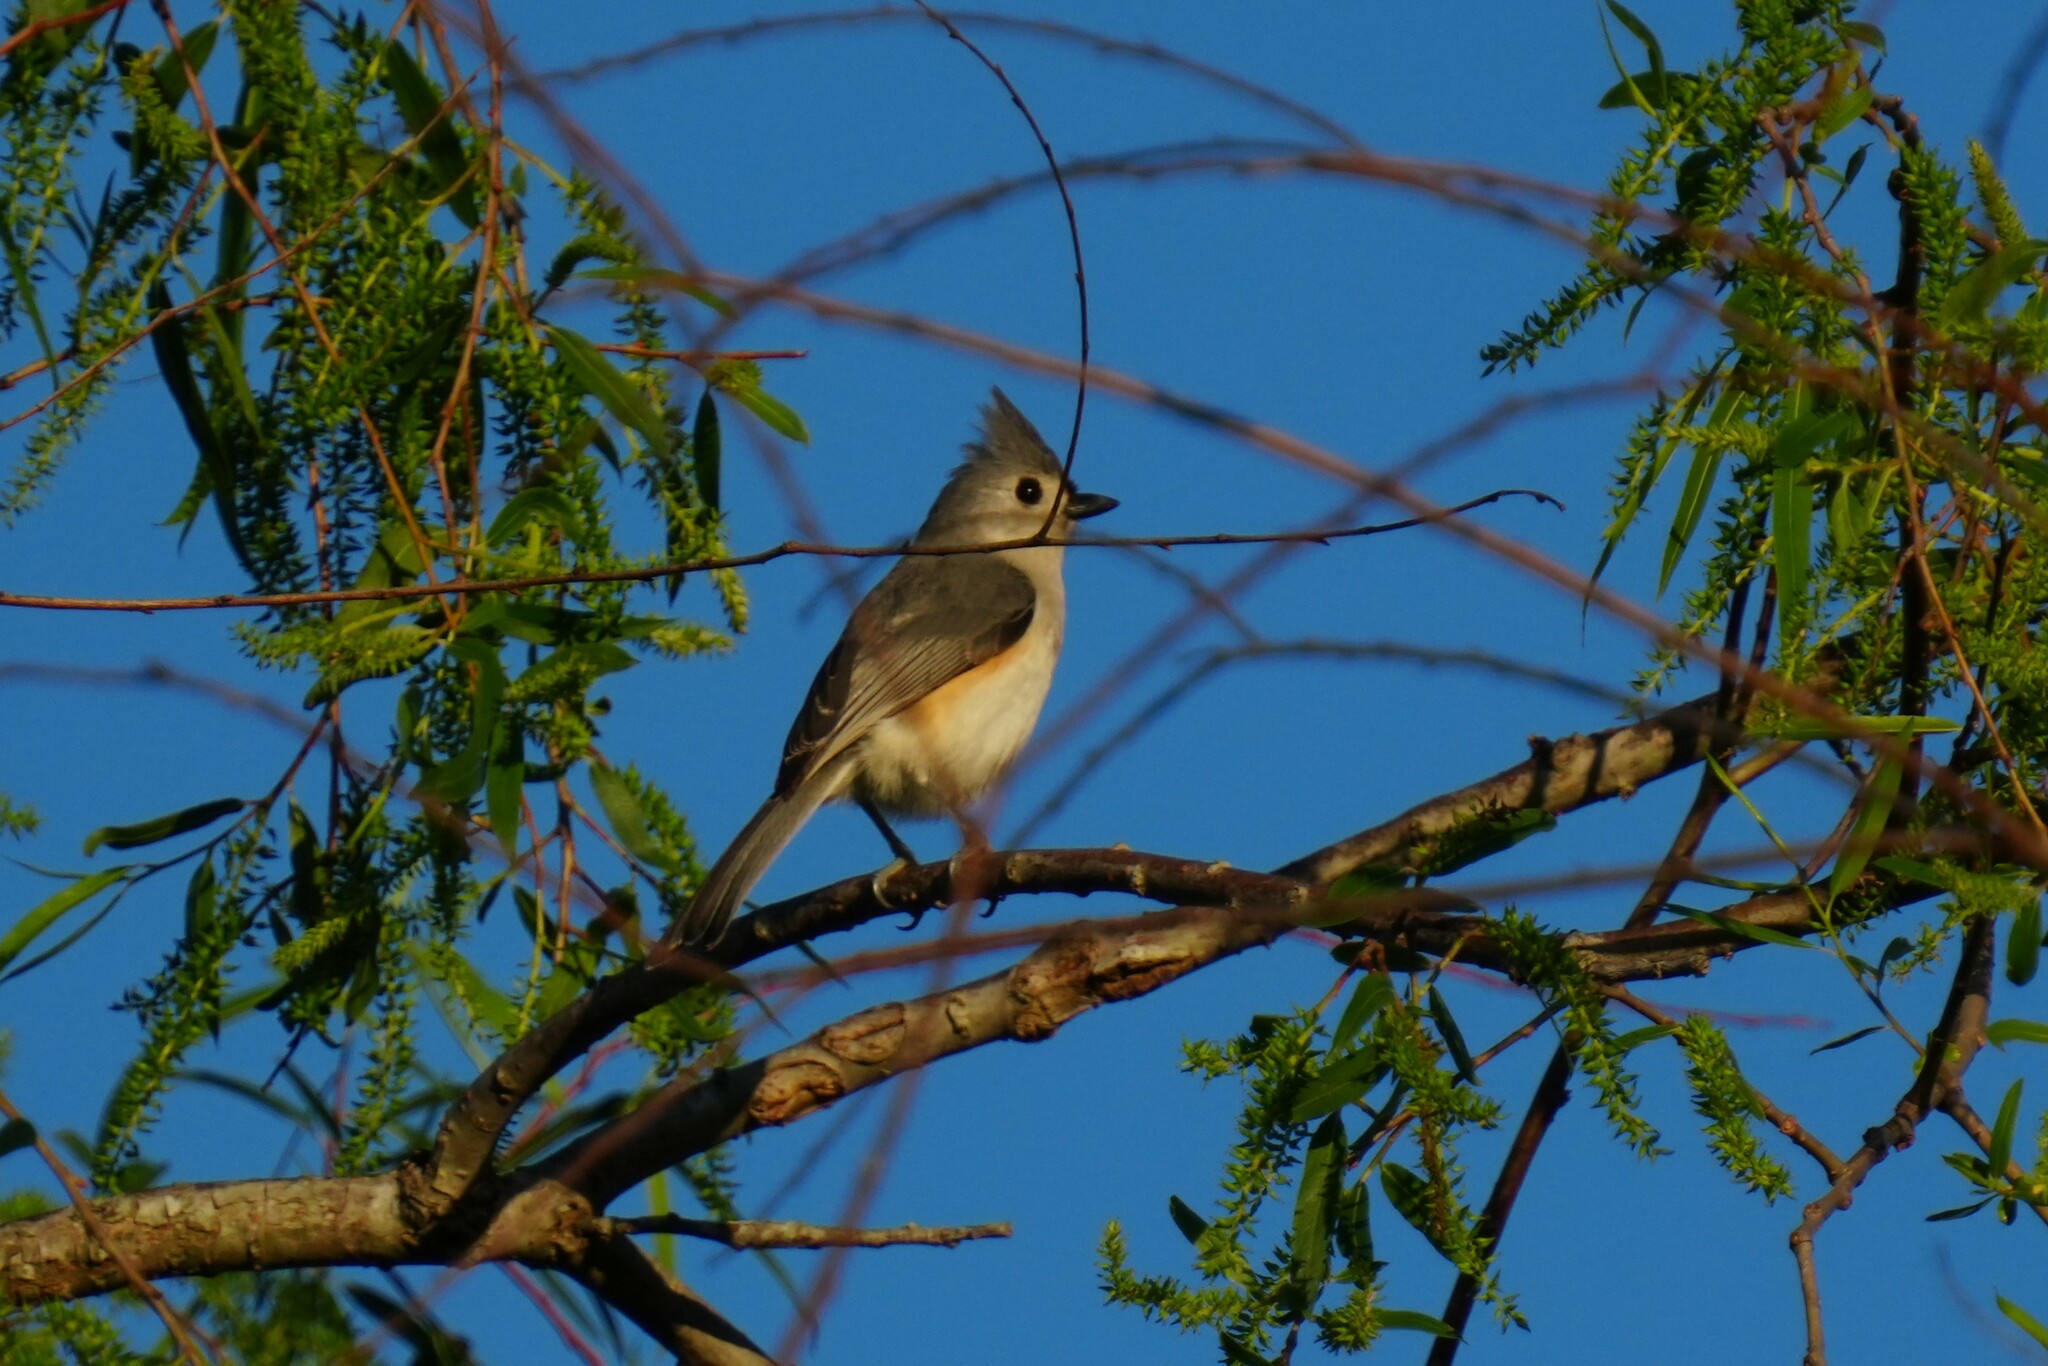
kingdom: Animalia
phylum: Chordata
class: Aves
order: Passeriformes
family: Paridae
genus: Baeolophus
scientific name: Baeolophus bicolor
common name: Tufted titmouse
